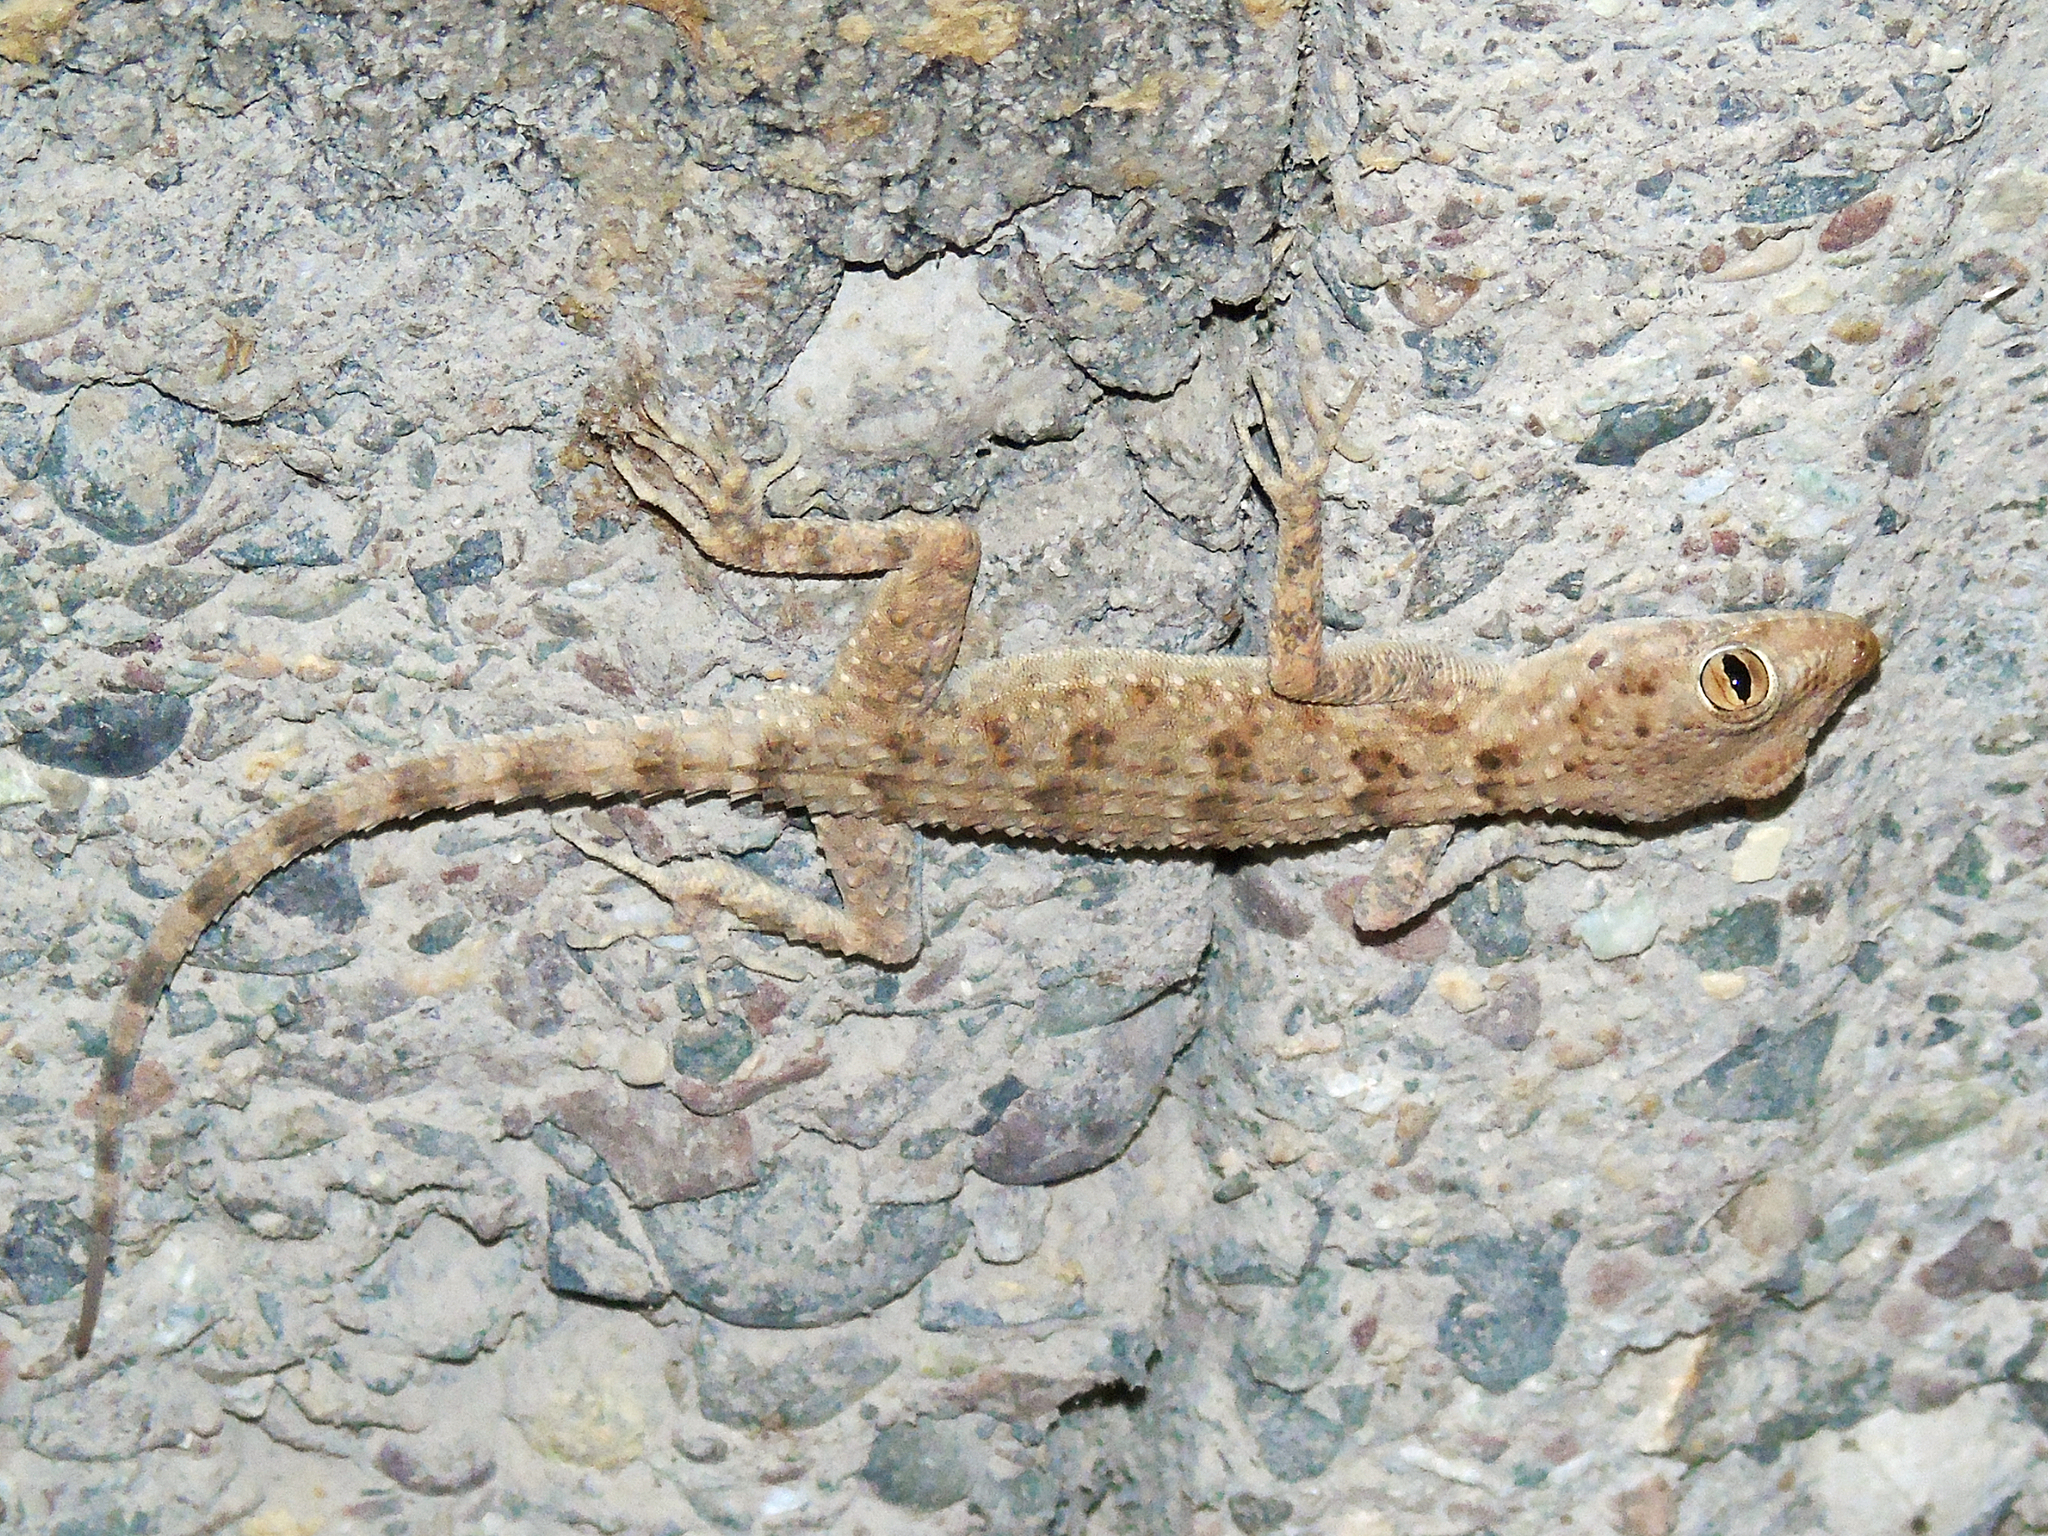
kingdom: Animalia
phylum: Chordata
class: Squamata
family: Gekkonidae
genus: Tenuidactylus
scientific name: Tenuidactylus fedtschenkoi
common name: Turkestan thin-toed gecko
